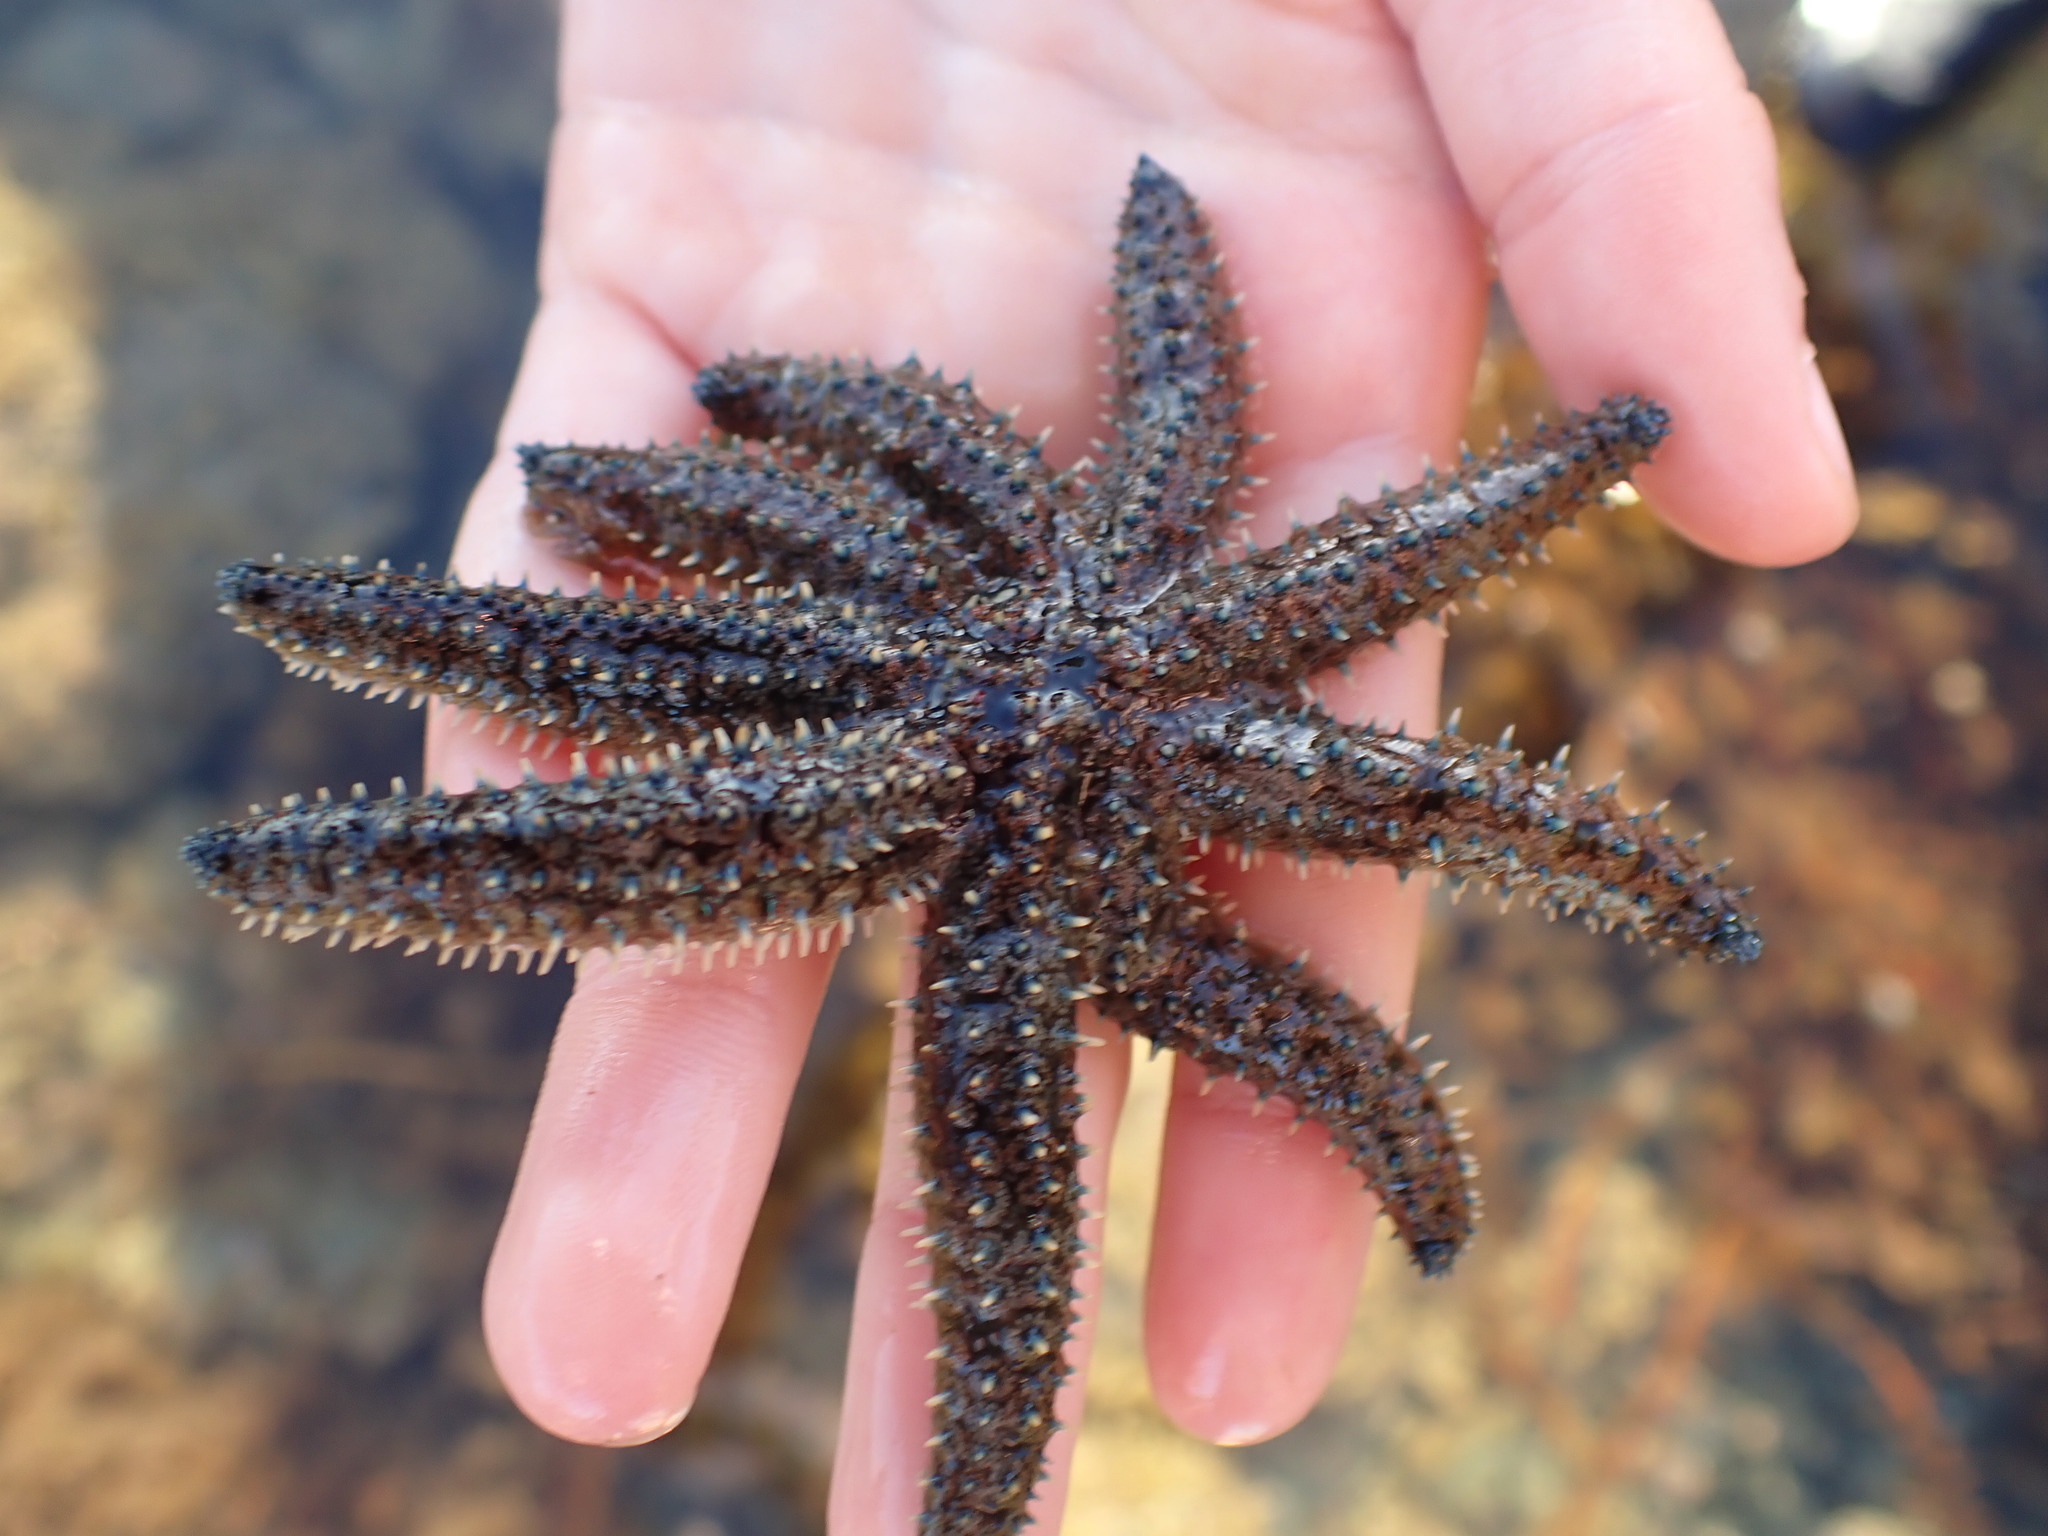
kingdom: Animalia
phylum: Echinodermata
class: Asteroidea
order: Forcipulatida
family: Asteriidae
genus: Coscinasterias
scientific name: Coscinasterias muricata
